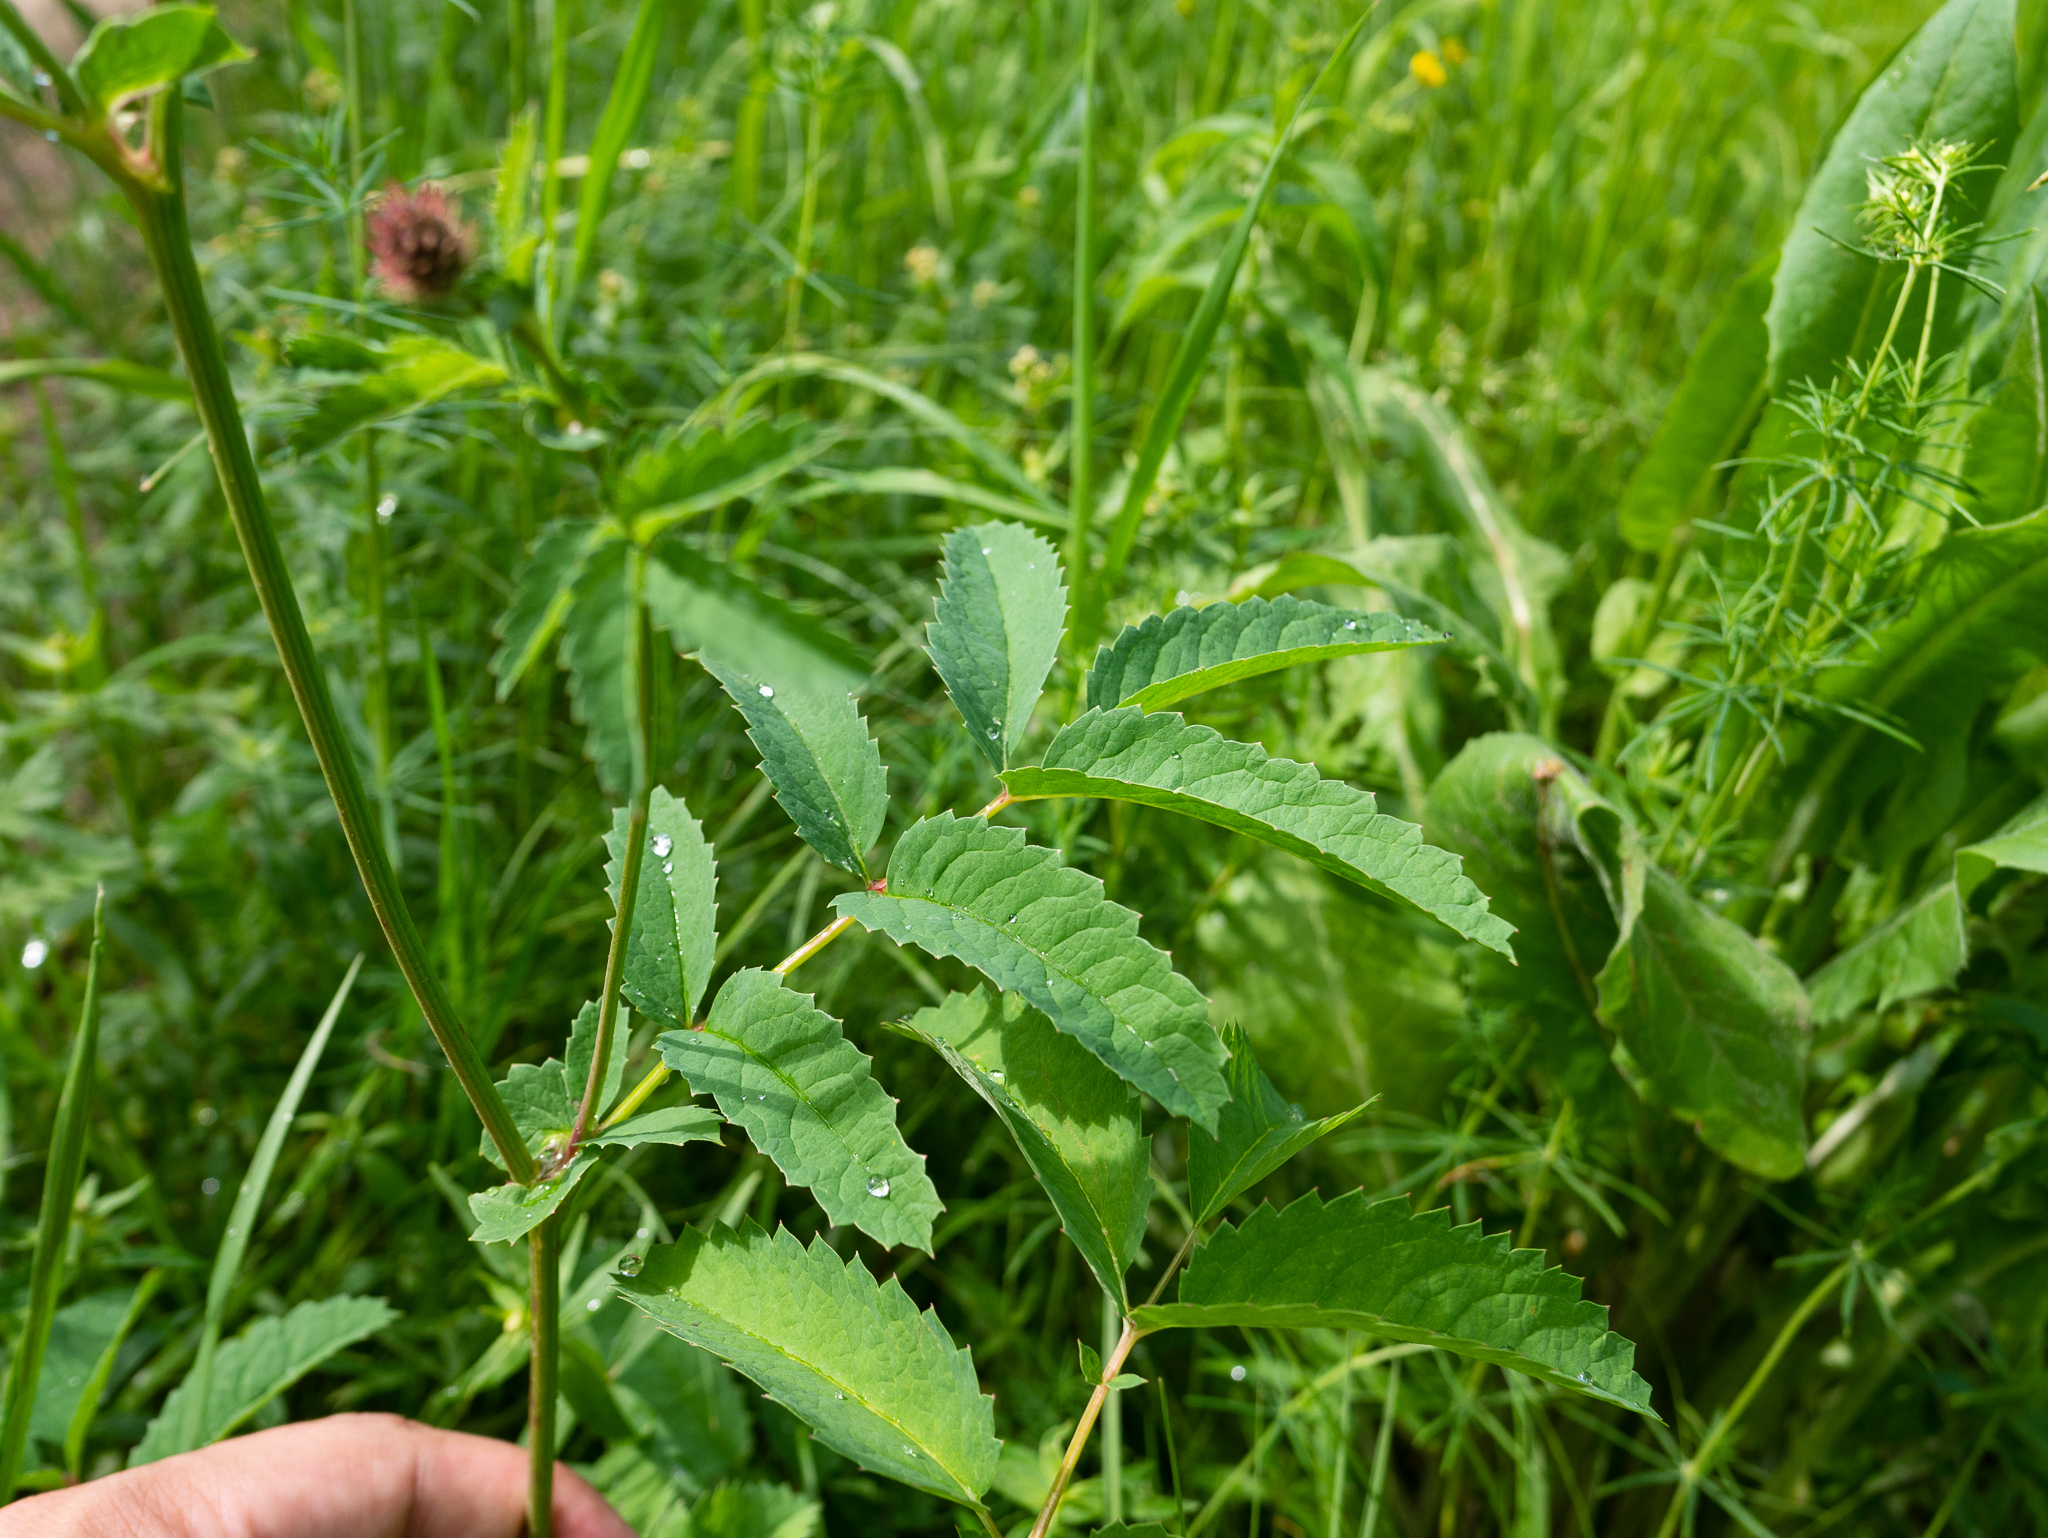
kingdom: Plantae
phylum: Tracheophyta
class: Magnoliopsida
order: Rosales
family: Rosaceae
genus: Sanguisorba
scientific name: Sanguisorba officinalis
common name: Great burnet
